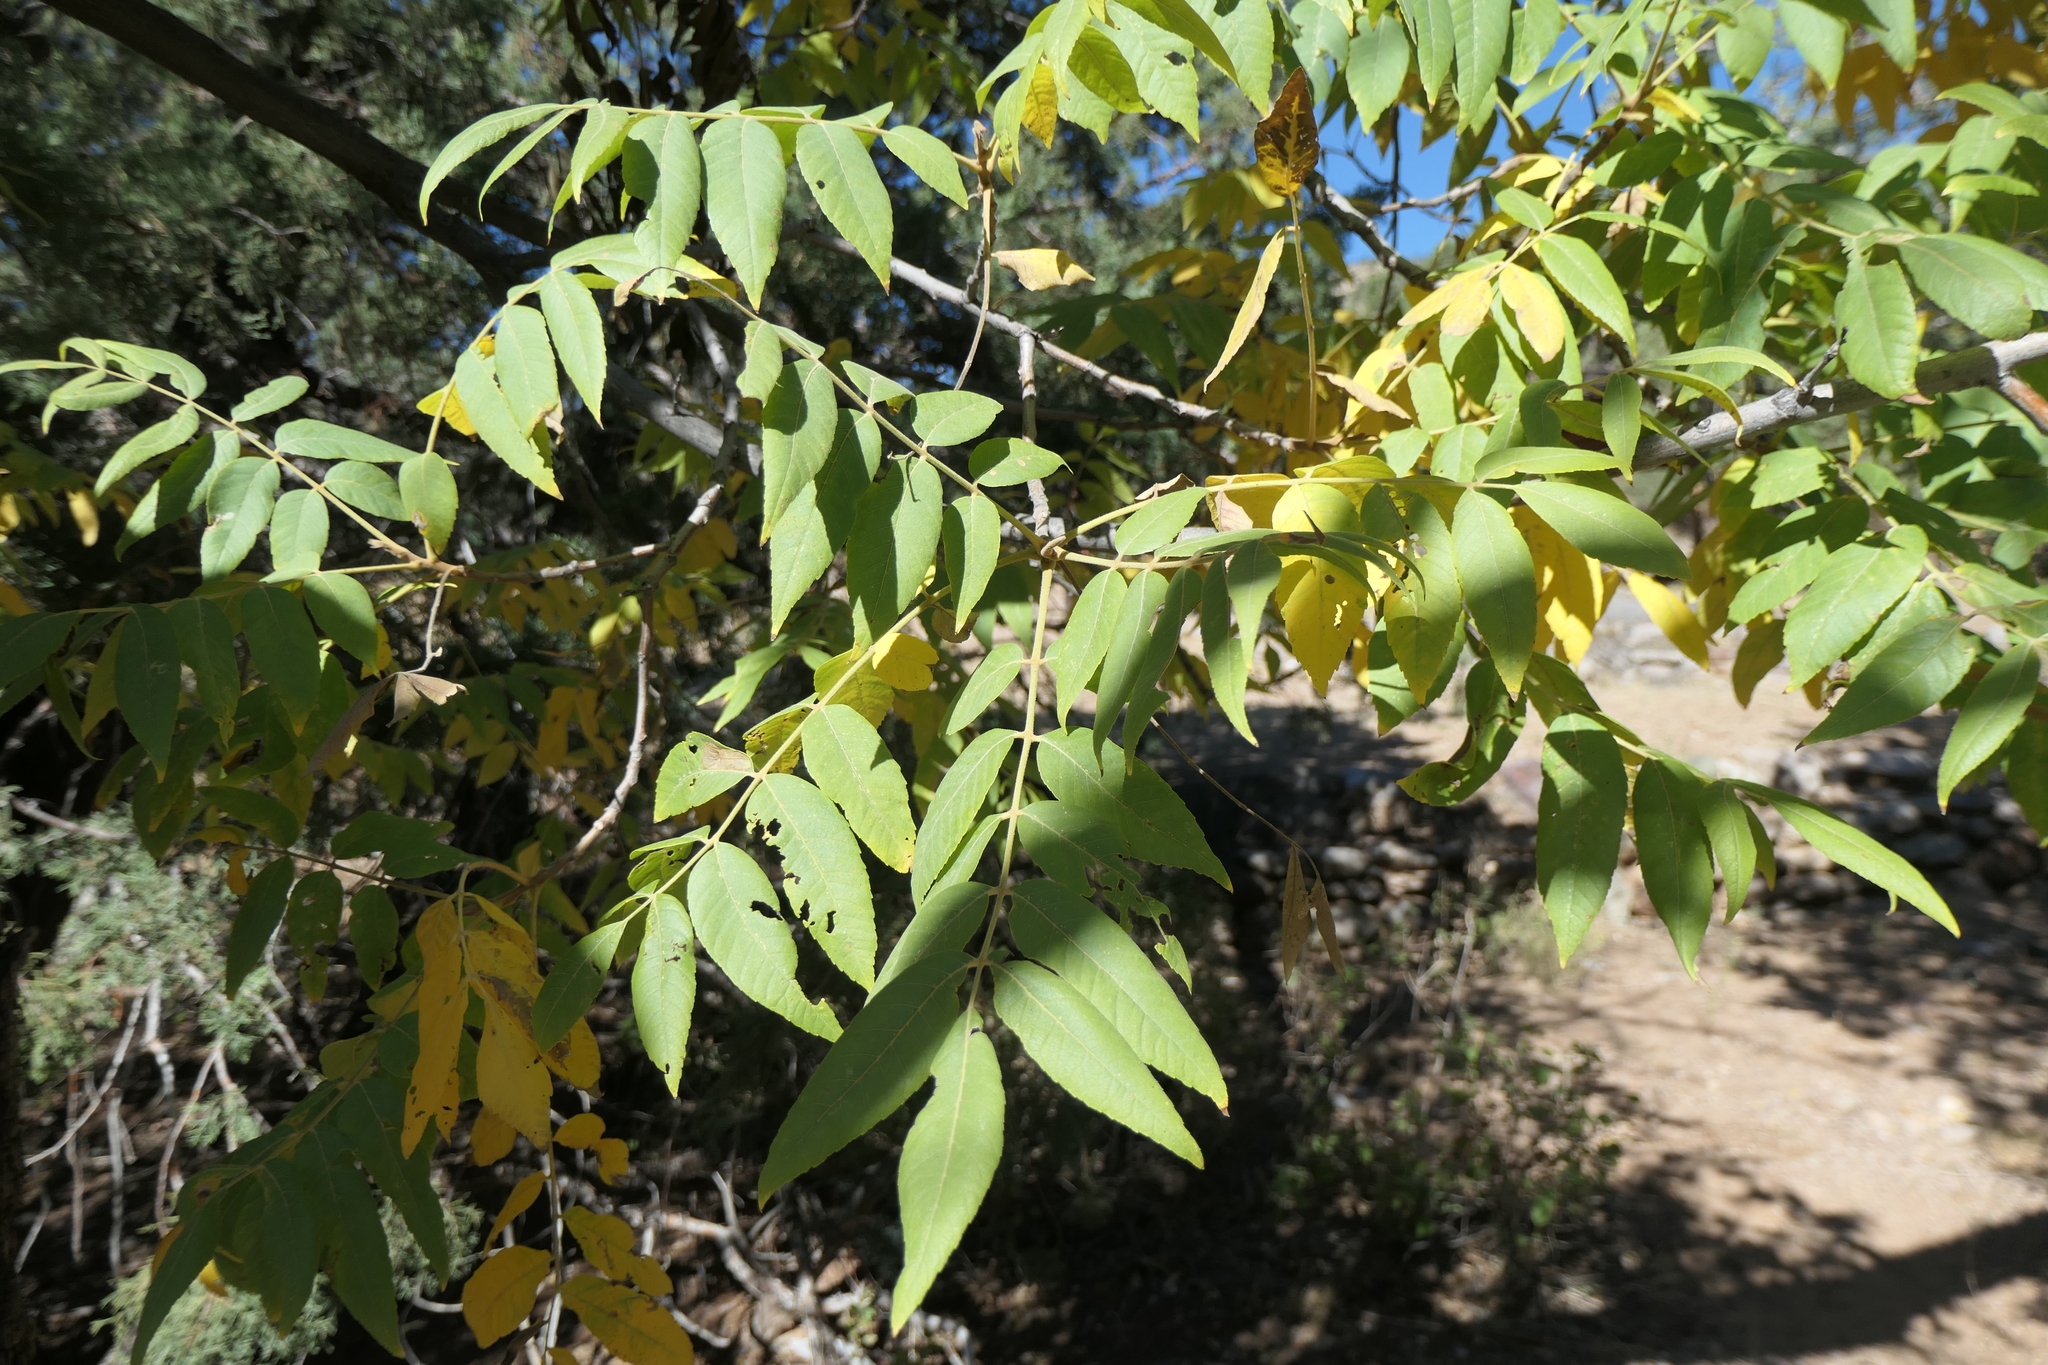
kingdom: Plantae
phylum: Tracheophyta
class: Magnoliopsida
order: Fagales
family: Juglandaceae
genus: Juglans
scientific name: Juglans major
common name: Arizona walnut
